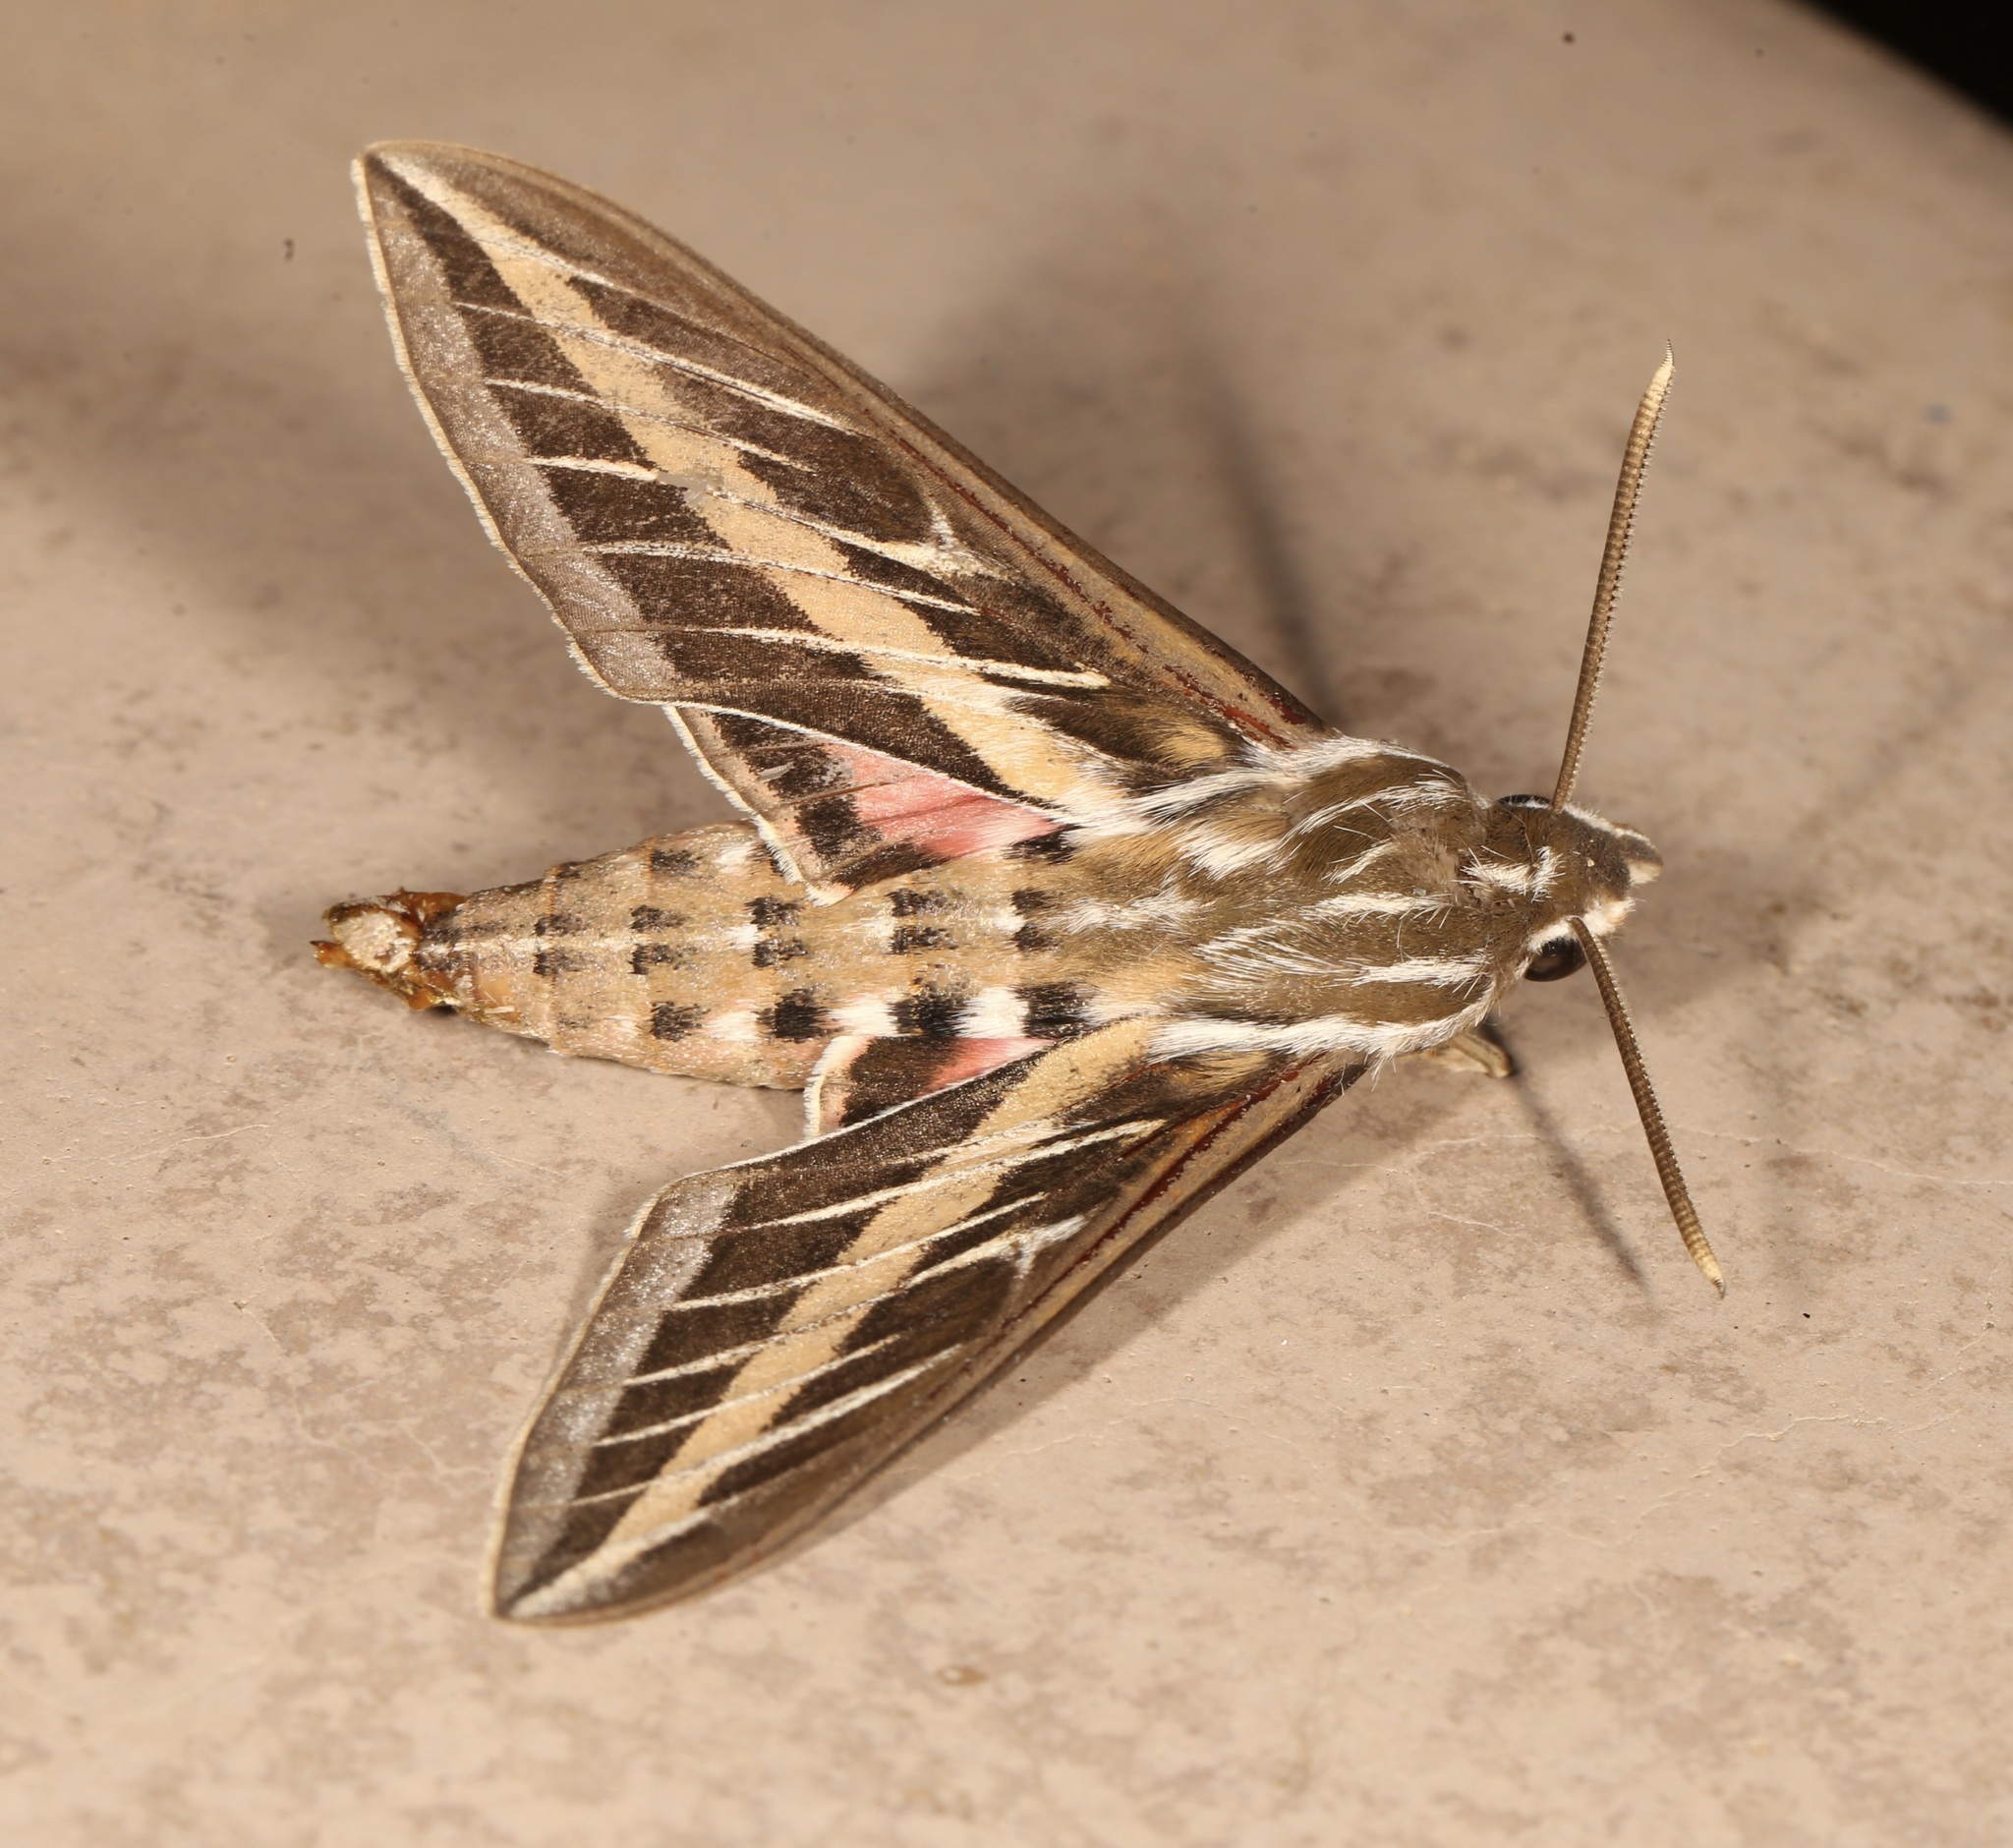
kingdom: Animalia
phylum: Arthropoda
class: Insecta
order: Lepidoptera
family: Sphingidae
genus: Hyles
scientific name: Hyles lineata
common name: White-lined sphinx
